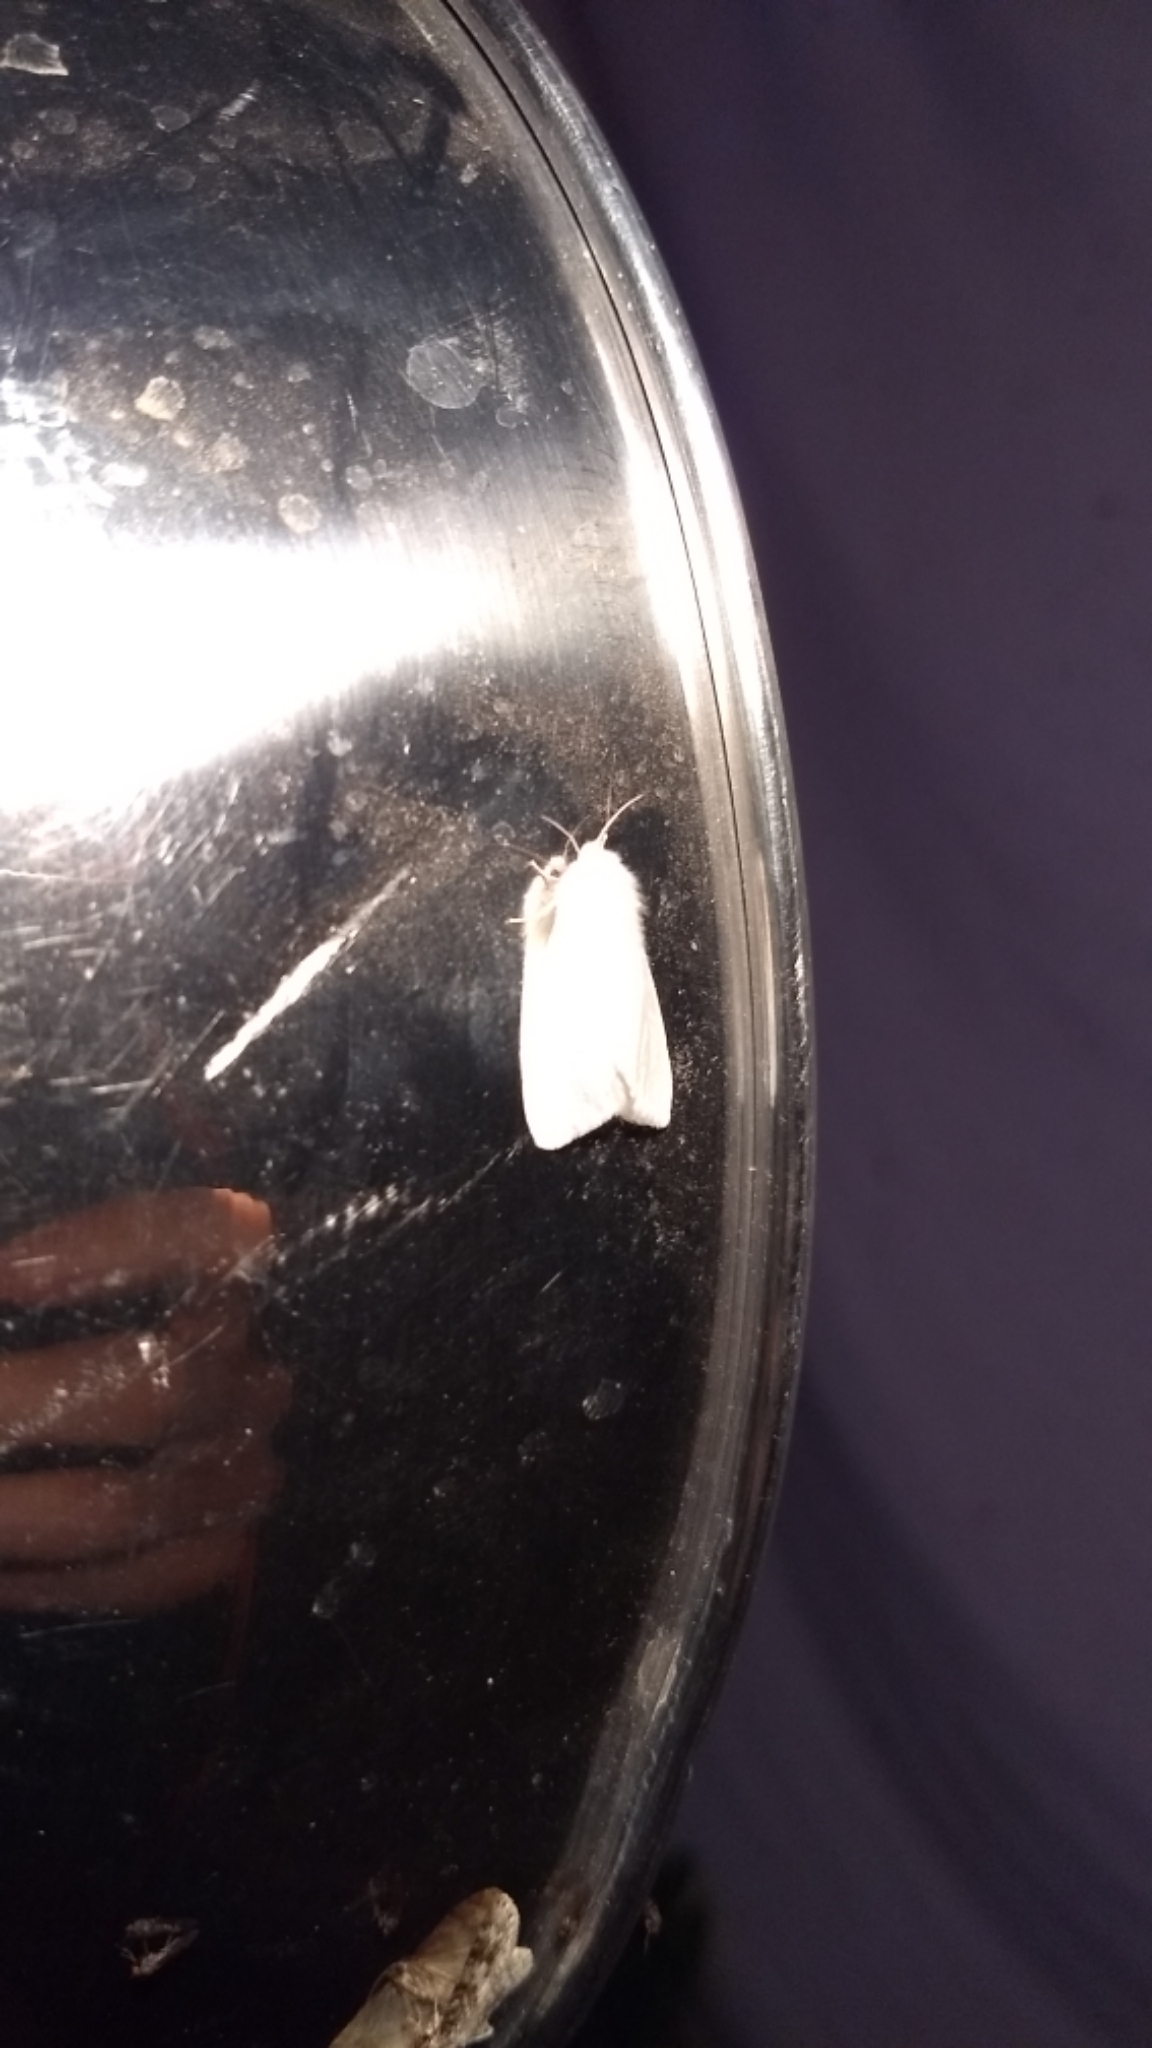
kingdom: Animalia
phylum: Arthropoda
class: Insecta
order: Lepidoptera
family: Erebidae
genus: Hyphantria
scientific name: Hyphantria cunea
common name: American white moth
